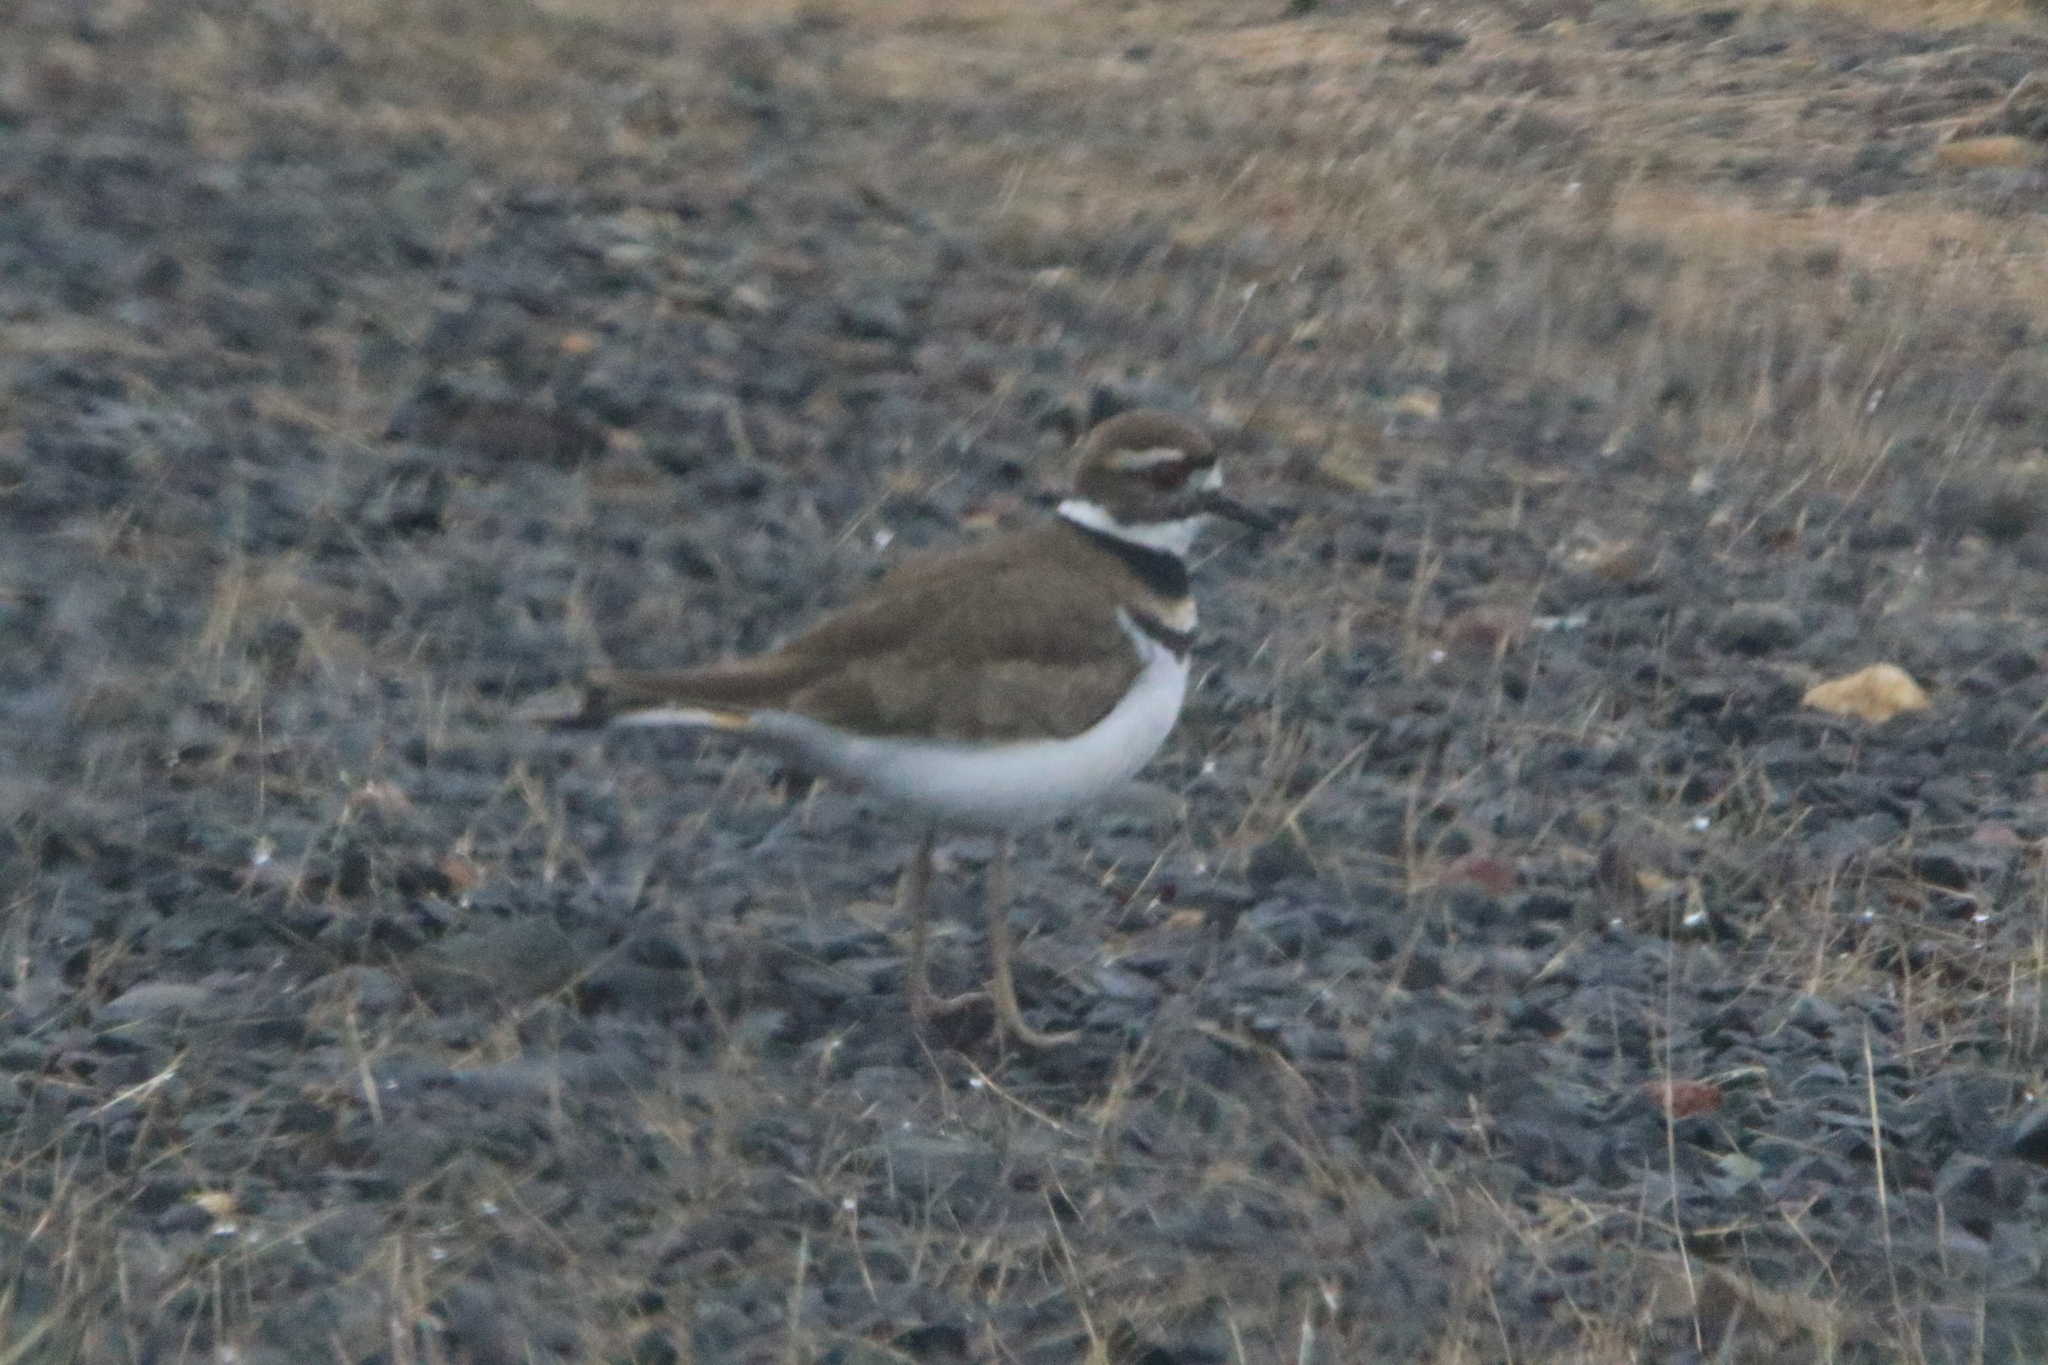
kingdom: Animalia
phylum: Chordata
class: Aves
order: Charadriiformes
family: Charadriidae
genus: Charadrius
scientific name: Charadrius vociferus
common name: Killdeer
